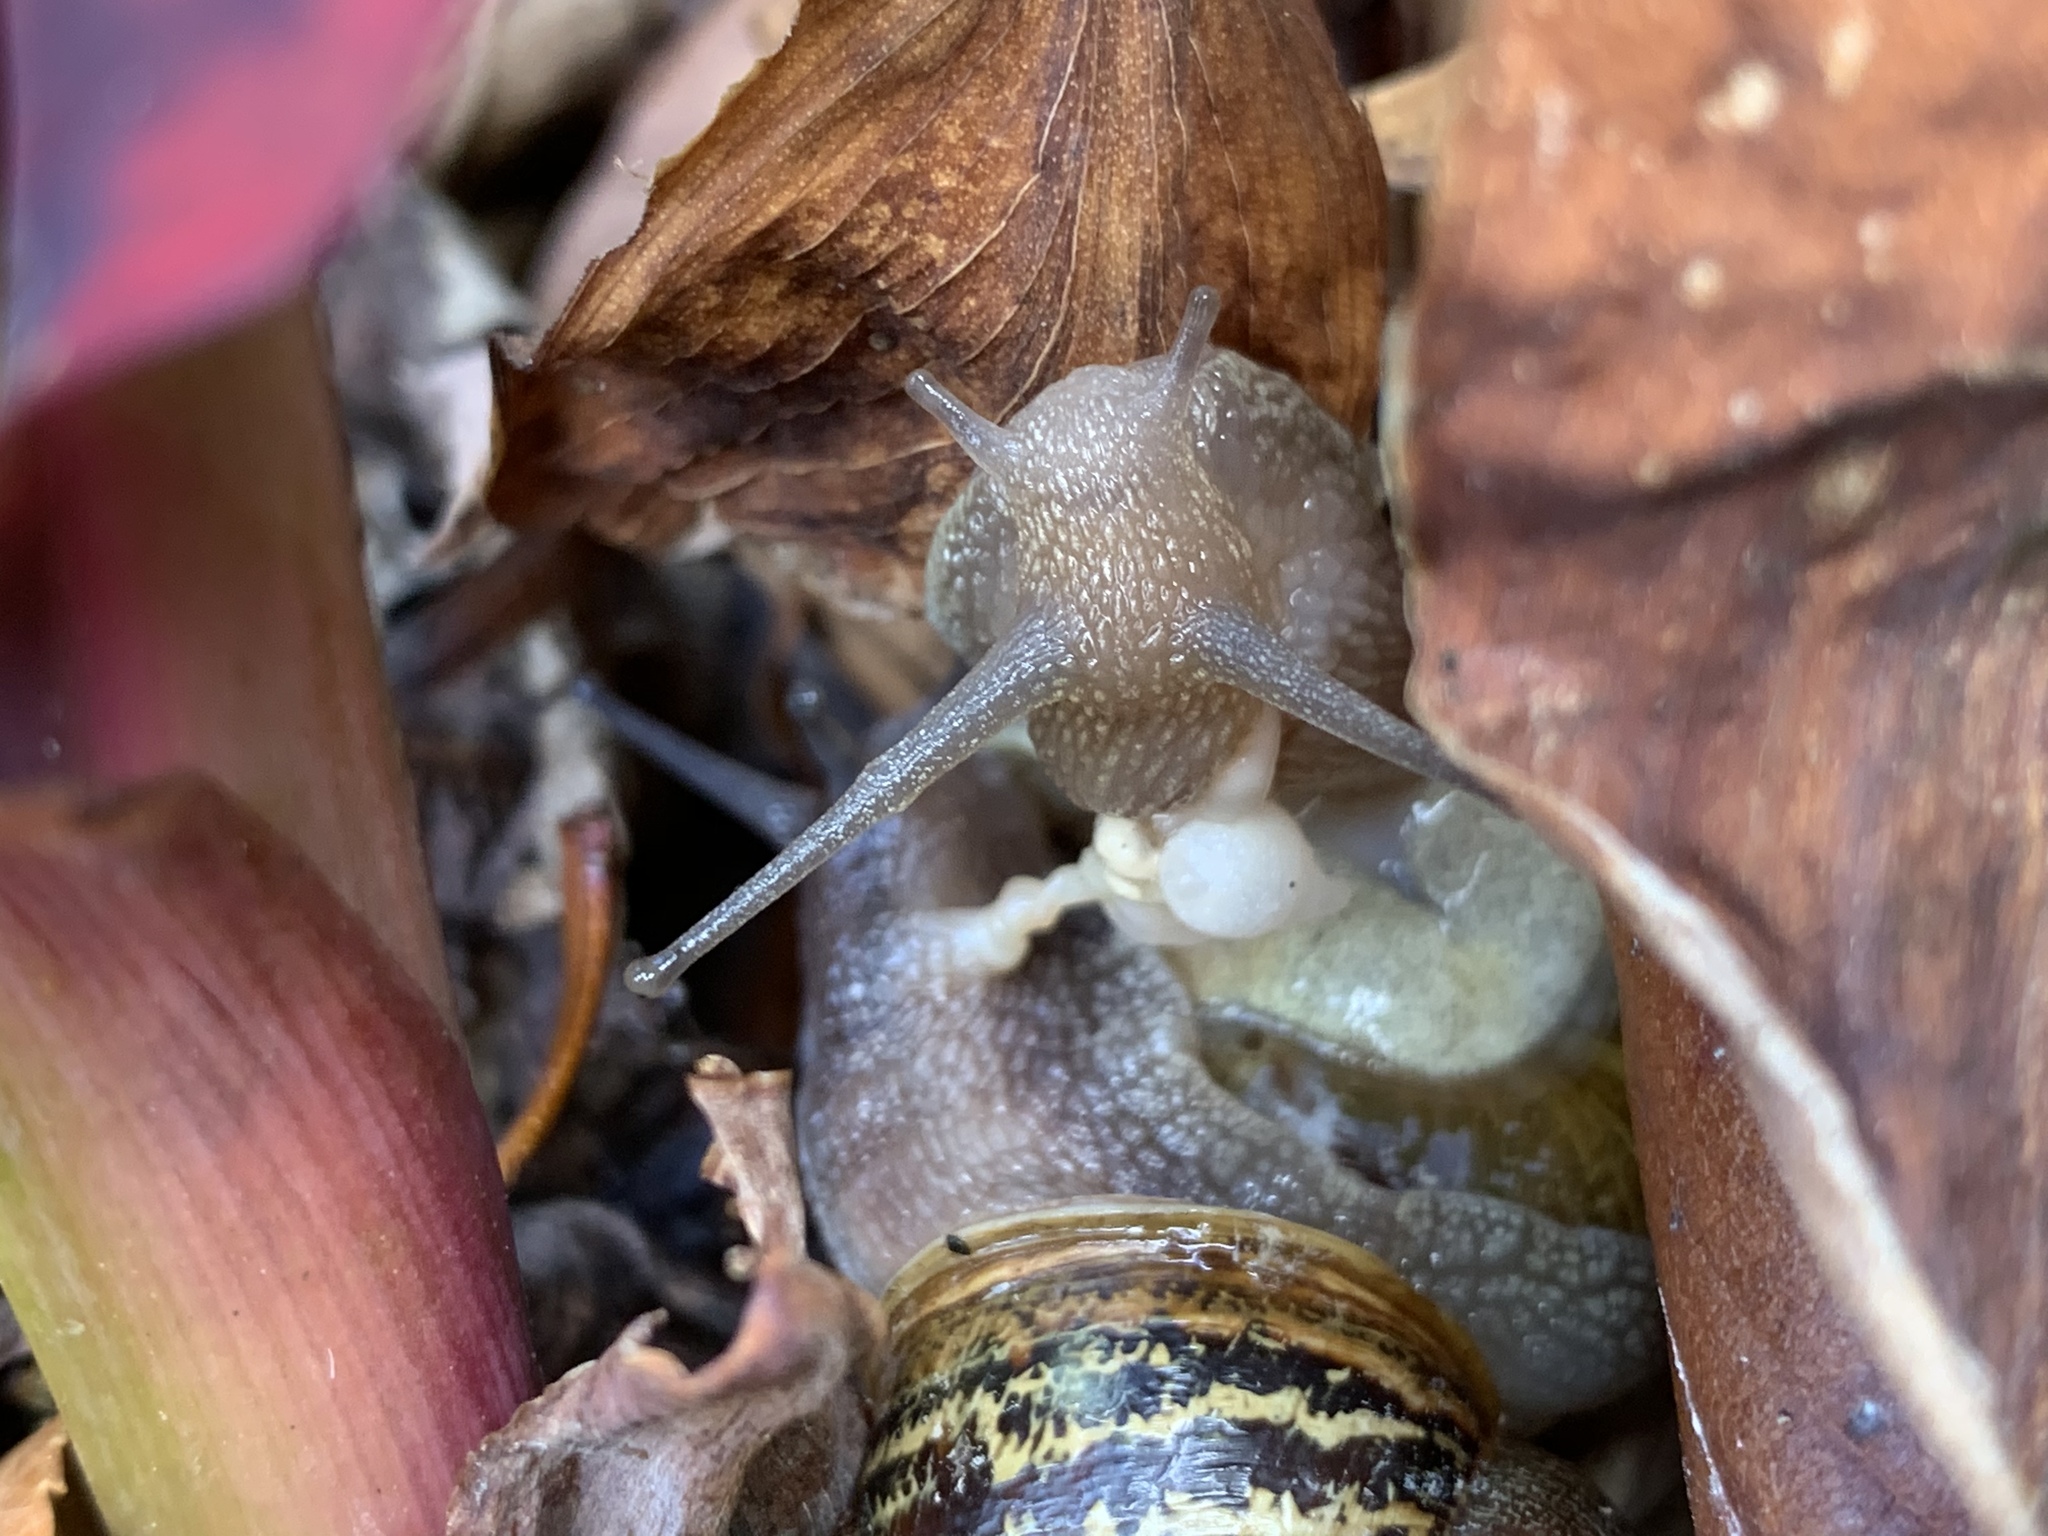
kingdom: Animalia
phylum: Mollusca
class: Gastropoda
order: Stylommatophora
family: Helicidae
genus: Cornu
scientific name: Cornu aspersum
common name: Brown garden snail
